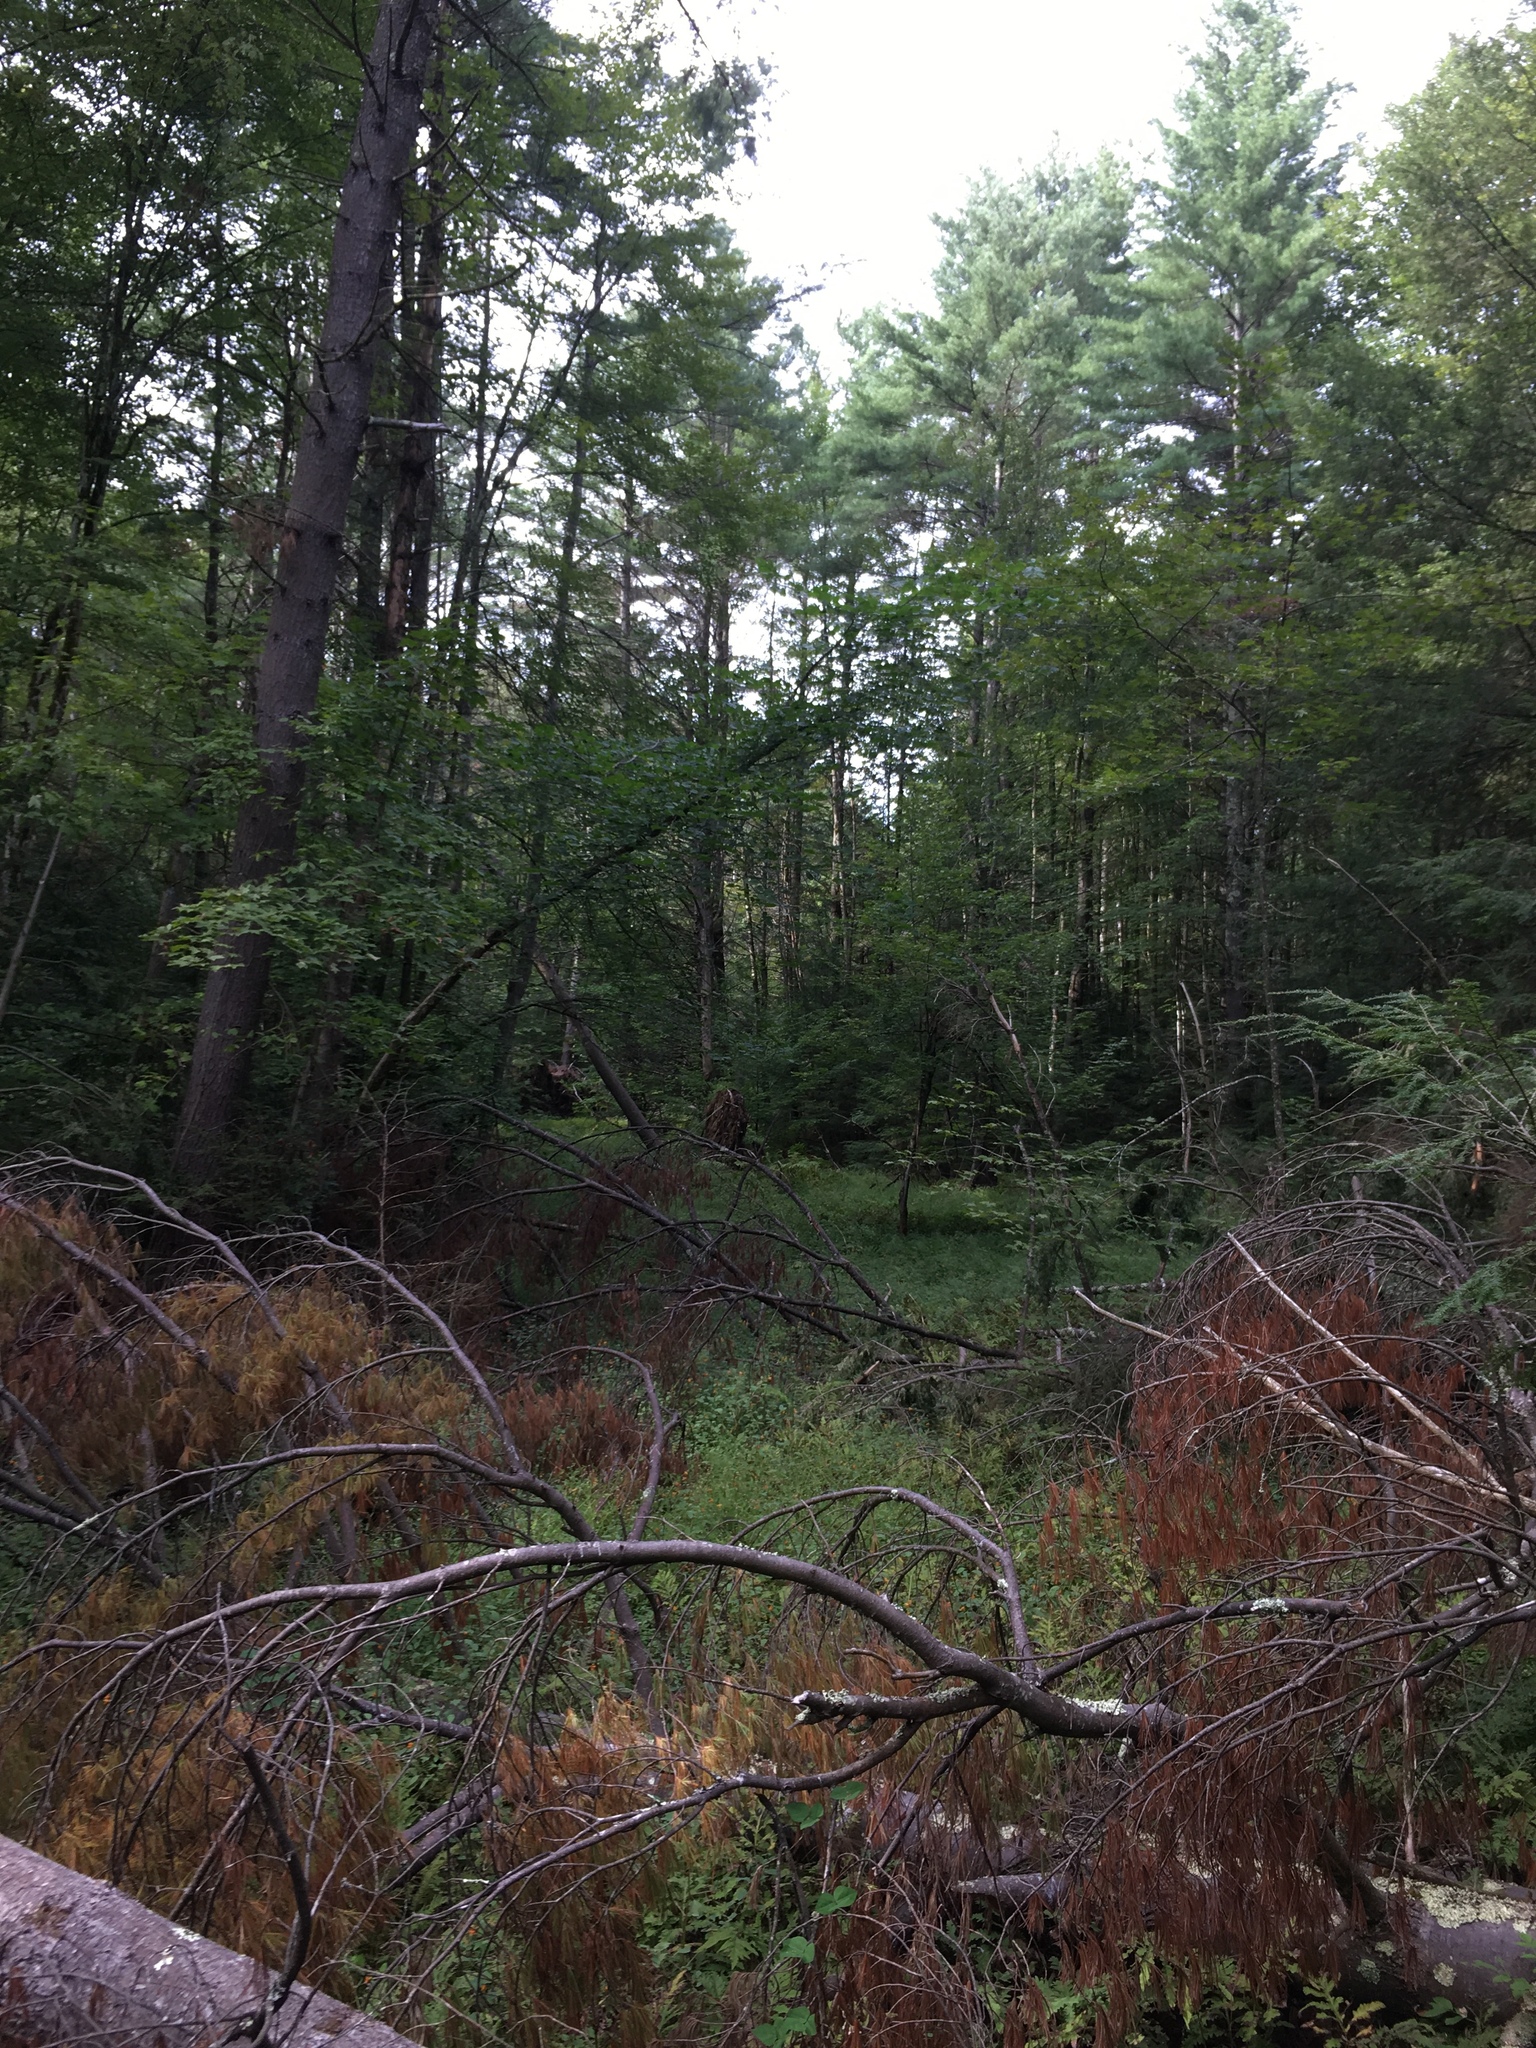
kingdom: Plantae
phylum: Tracheophyta
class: Pinopsida
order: Pinales
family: Pinaceae
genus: Pinus
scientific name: Pinus strobus
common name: Weymouth pine
